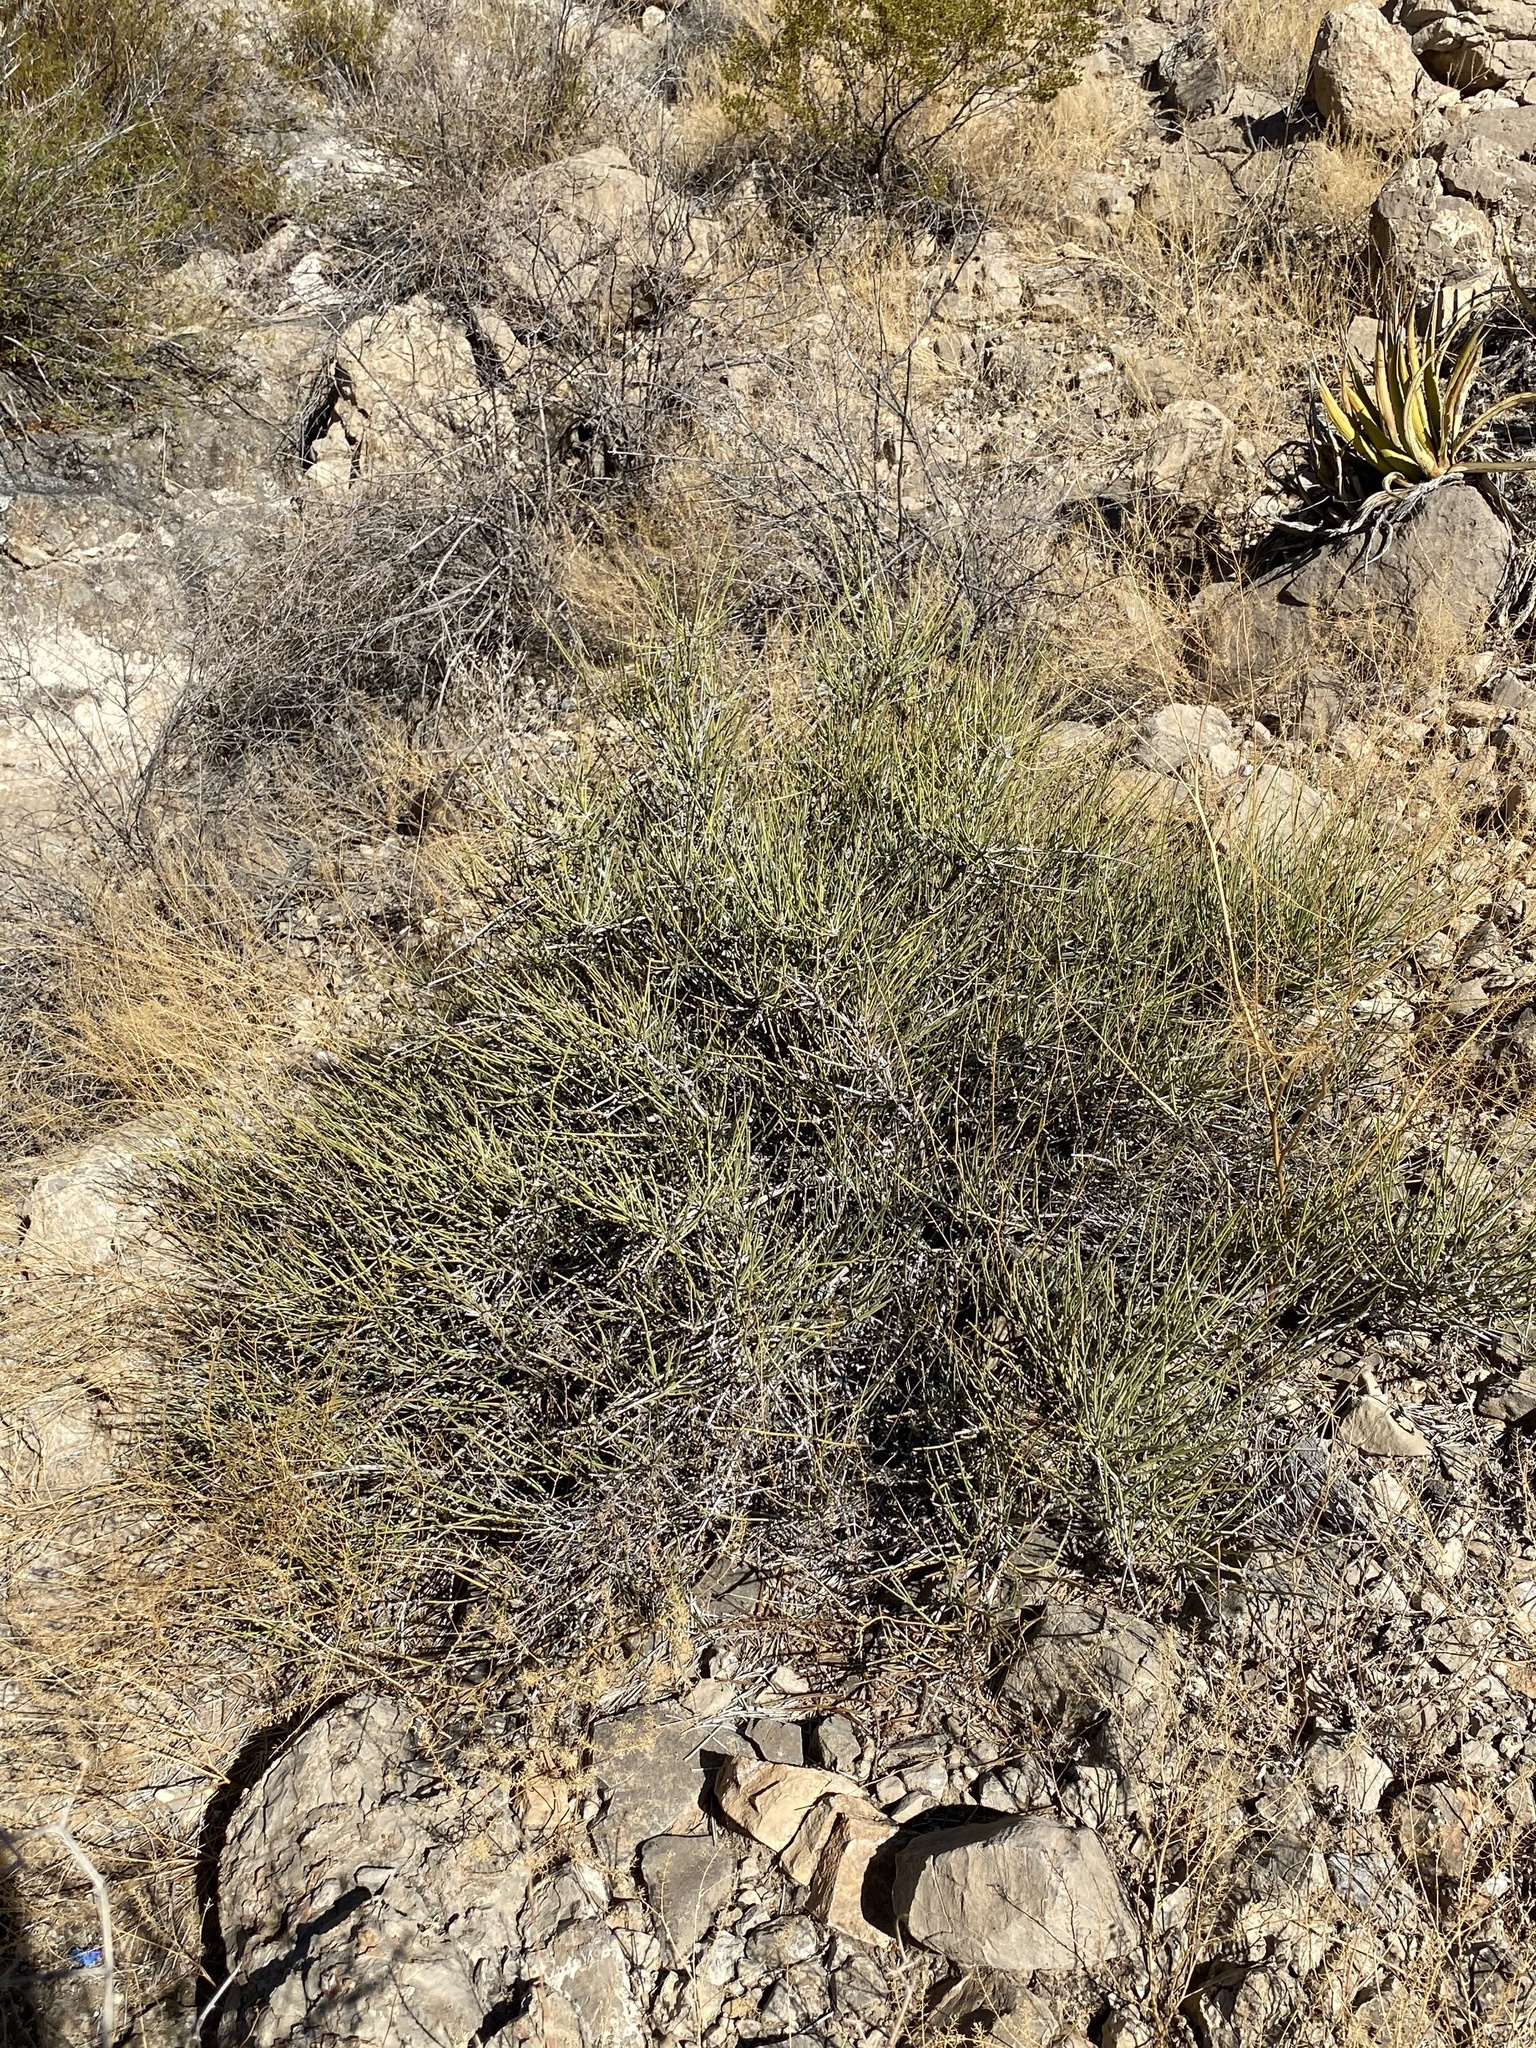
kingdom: Plantae
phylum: Tracheophyta
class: Gnetopsida
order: Ephedrales
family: Ephedraceae
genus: Ephedra
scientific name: Ephedra trifurca
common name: Mexican-tea
